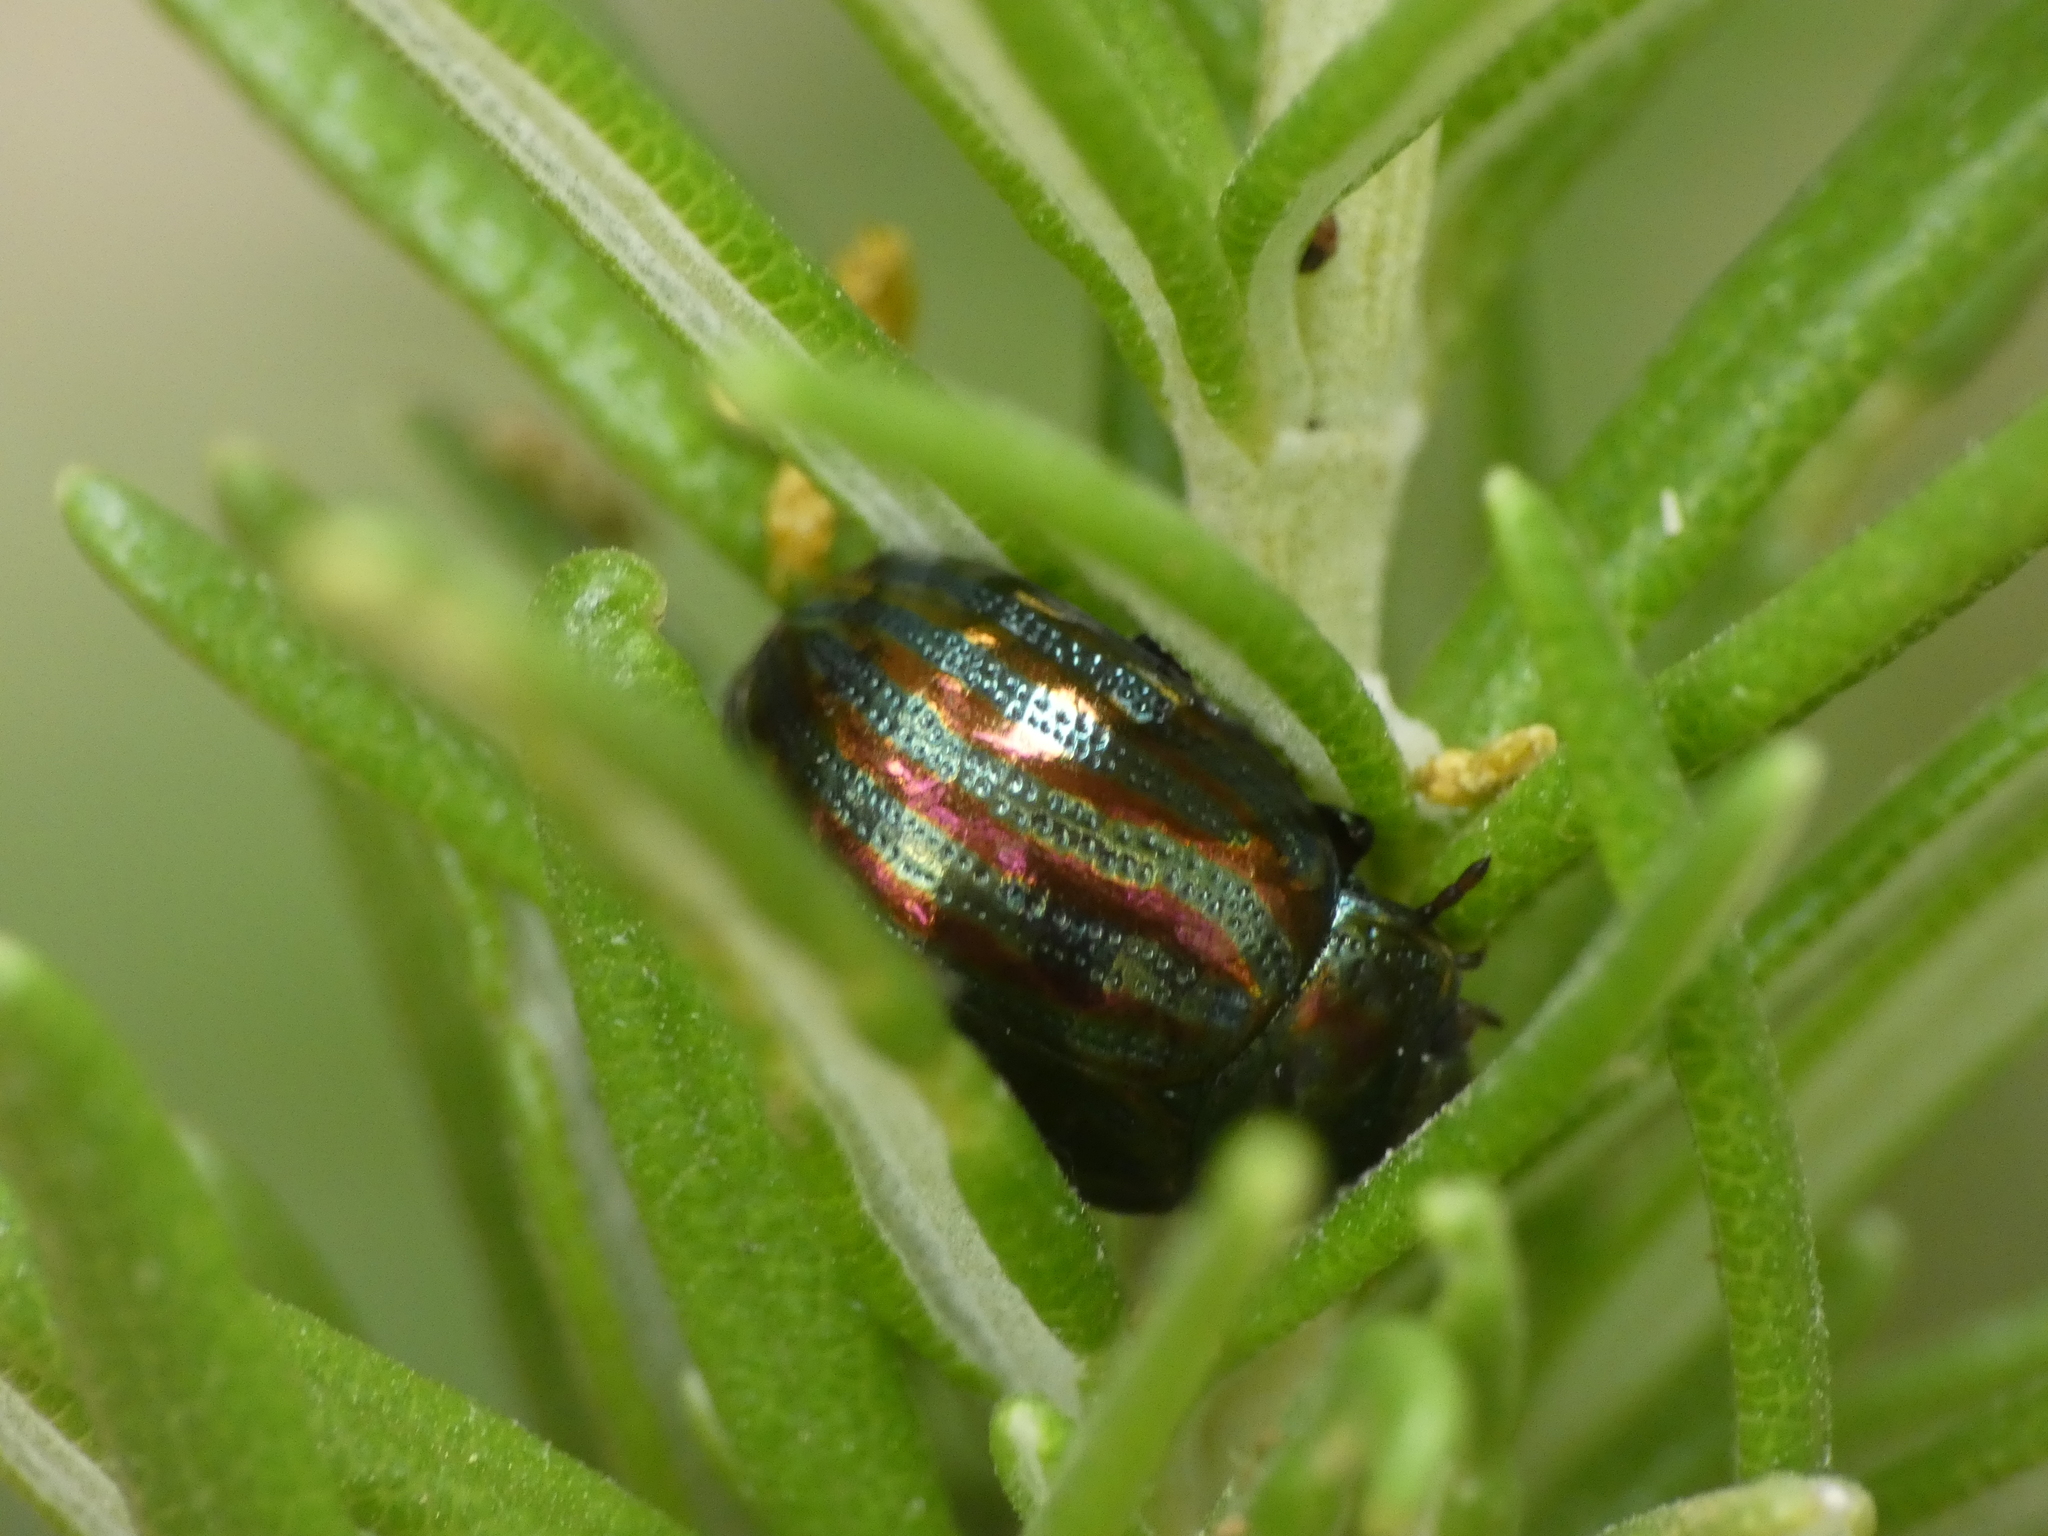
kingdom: Animalia
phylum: Arthropoda
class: Insecta
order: Coleoptera
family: Chrysomelidae
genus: Chrysolina
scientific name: Chrysolina americana
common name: Rosemary beetle
